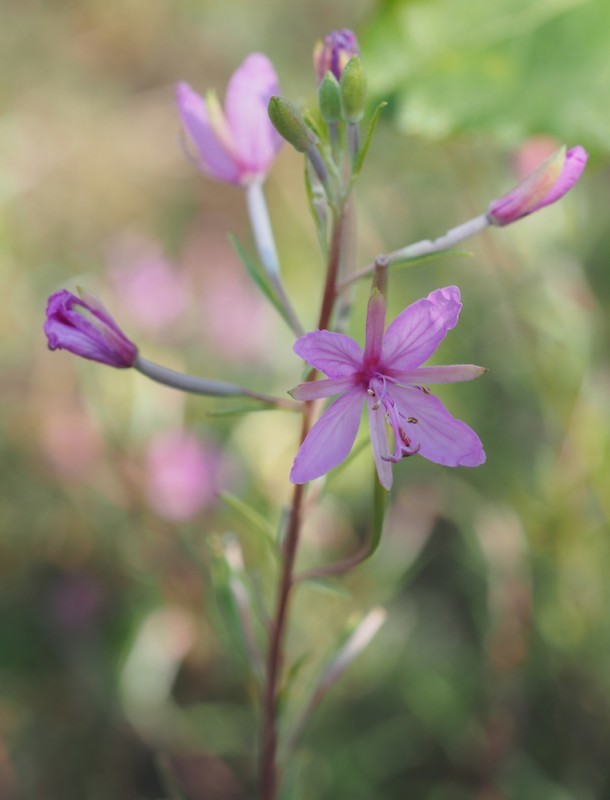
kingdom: Plantae
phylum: Tracheophyta
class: Magnoliopsida
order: Myrtales
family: Onagraceae
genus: Chamaenerion
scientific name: Chamaenerion dodonaei
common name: Rosemary-leaved willowherb
